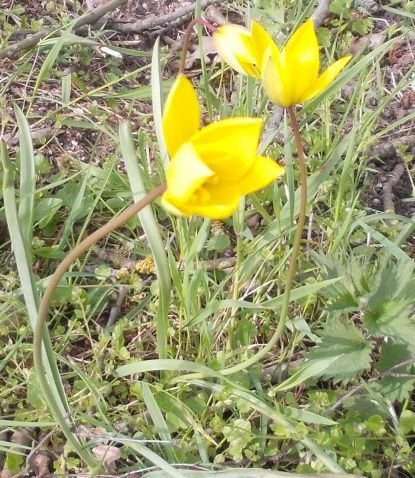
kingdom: Plantae
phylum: Tracheophyta
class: Liliopsida
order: Liliales
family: Liliaceae
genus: Tulipa
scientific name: Tulipa sylvestris
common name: Wild tulip
